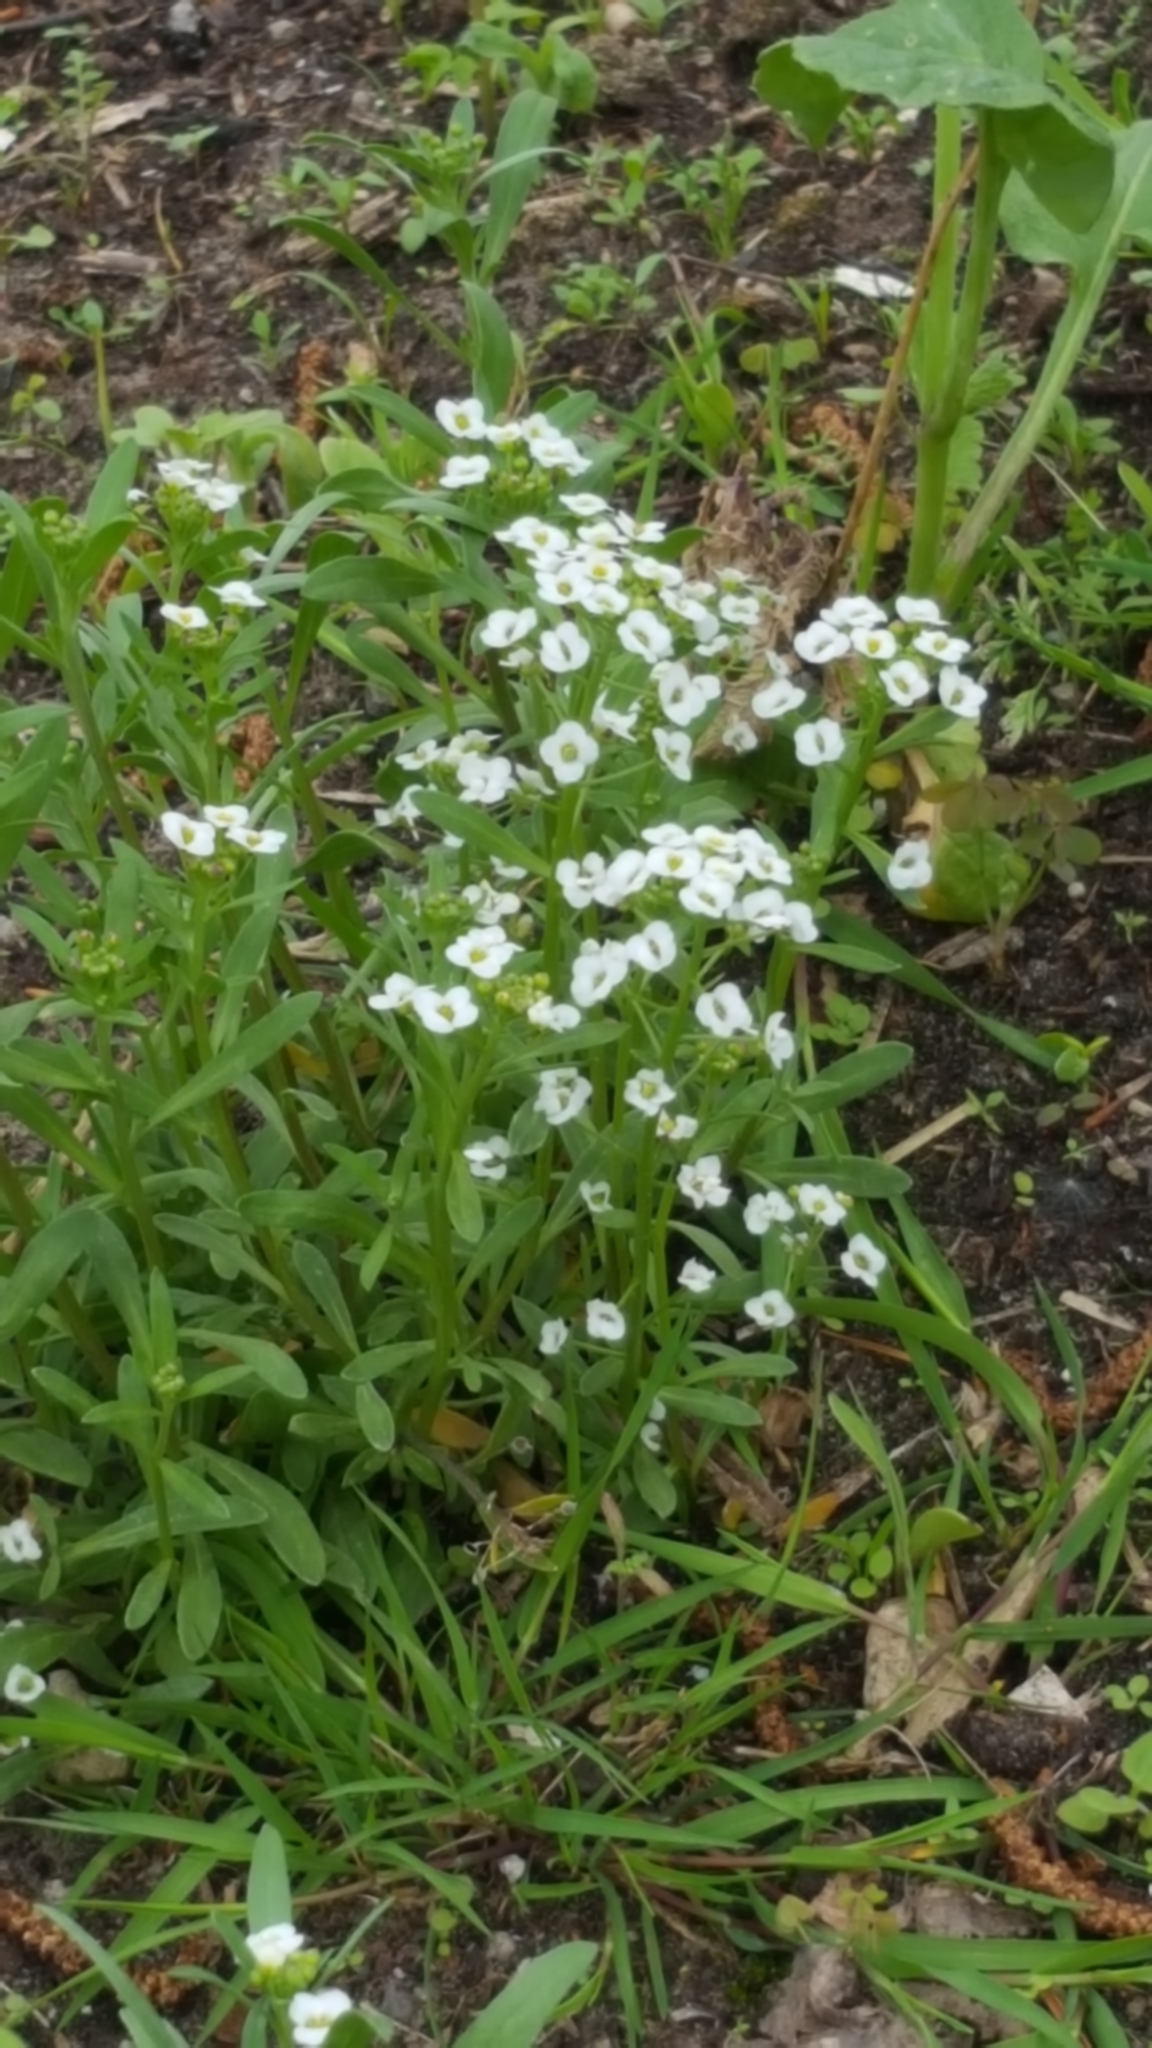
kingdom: Plantae
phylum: Tracheophyta
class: Magnoliopsida
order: Brassicales
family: Brassicaceae
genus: Lobularia
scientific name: Lobularia maritima
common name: Sweet alison
